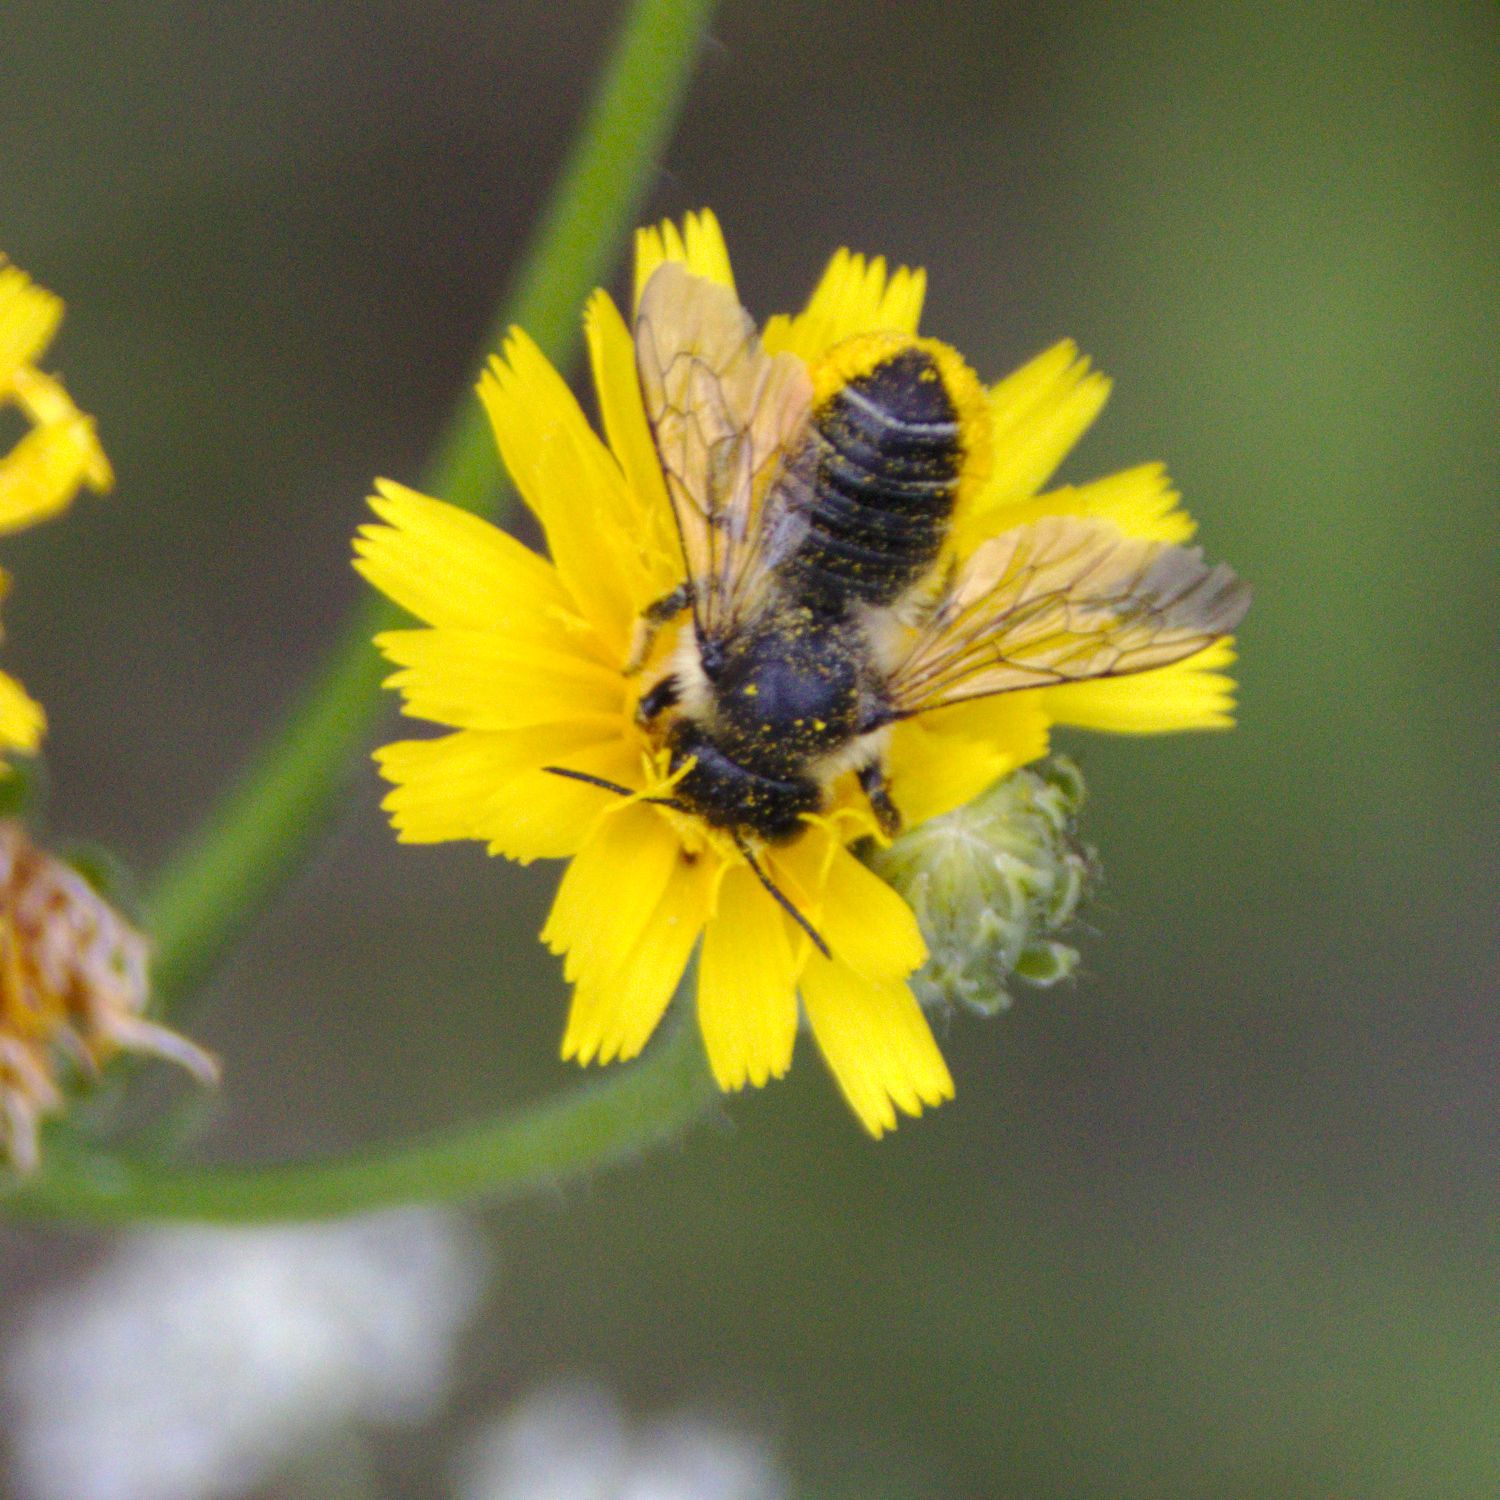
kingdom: Animalia
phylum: Arthropoda
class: Insecta
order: Hymenoptera
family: Megachilidae
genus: Megachile
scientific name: Megachile
